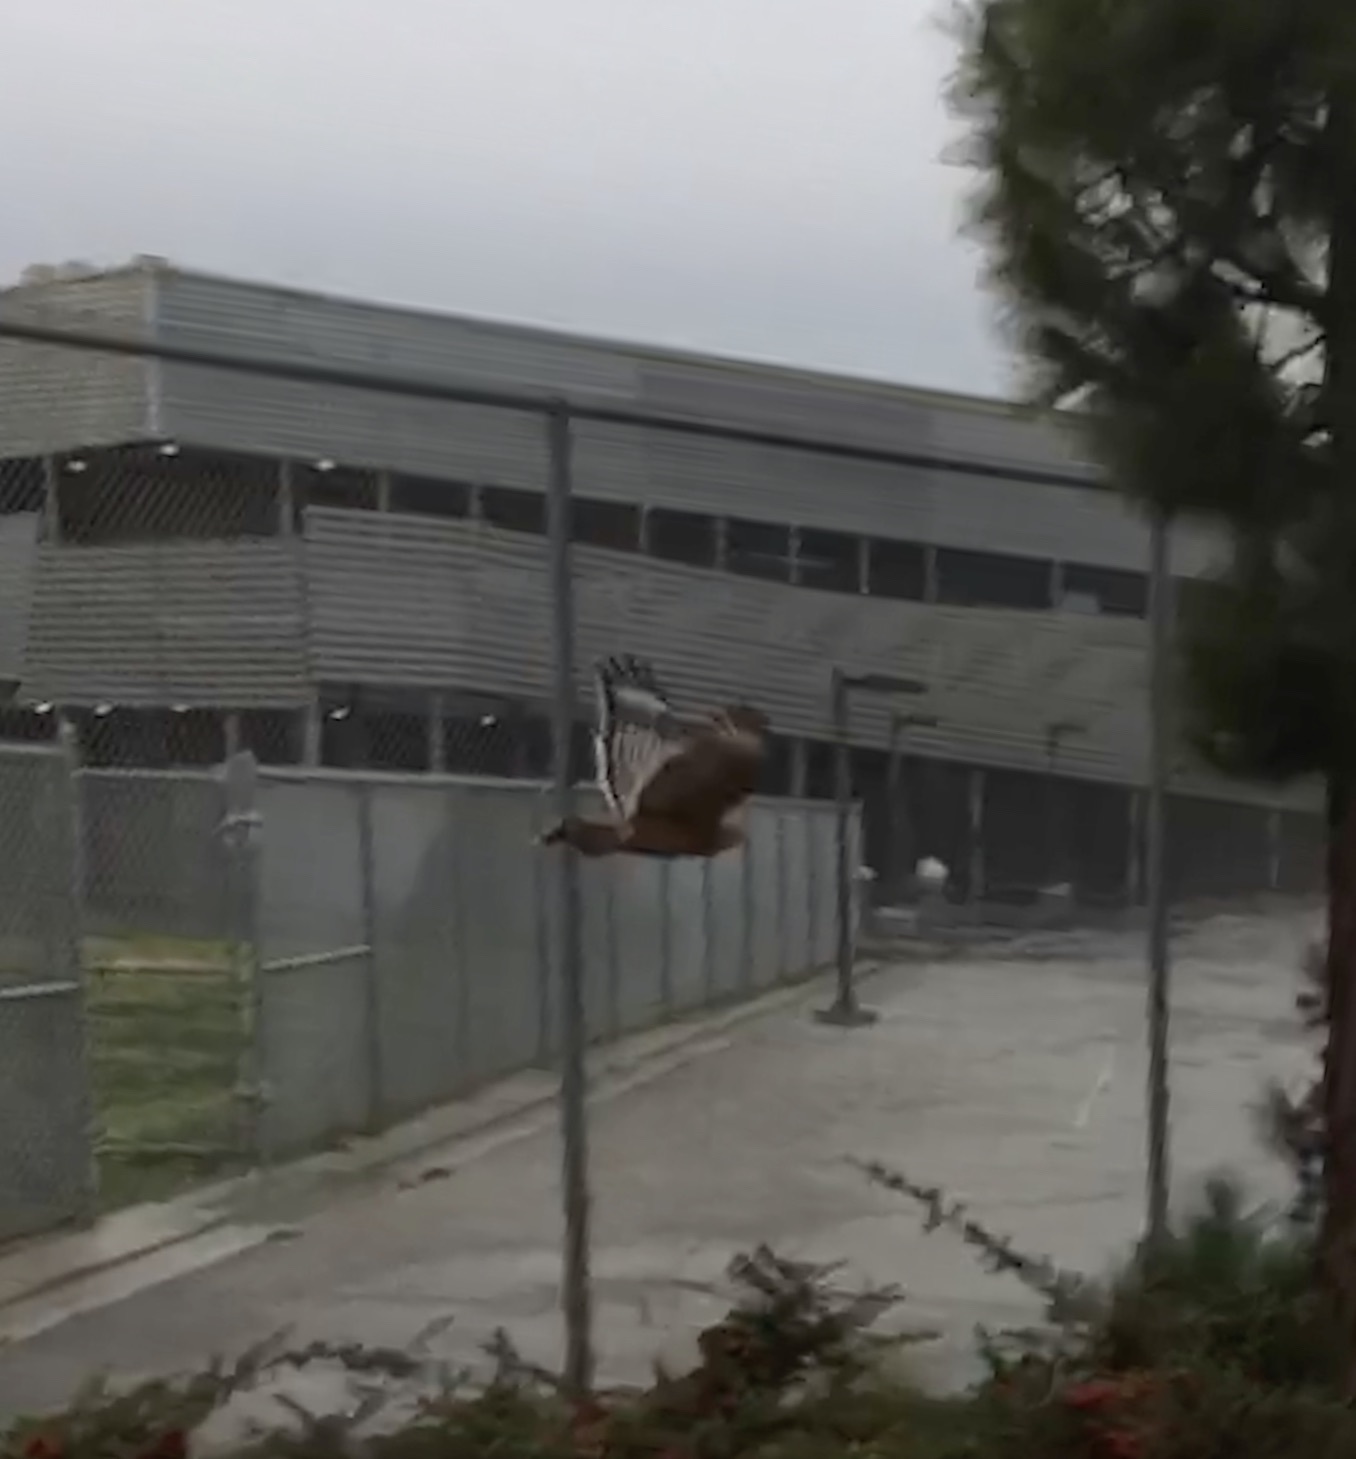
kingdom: Animalia
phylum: Chordata
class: Aves
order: Accipitriformes
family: Accipitridae
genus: Buteo
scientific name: Buteo lineatus
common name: Red-shouldered hawk
